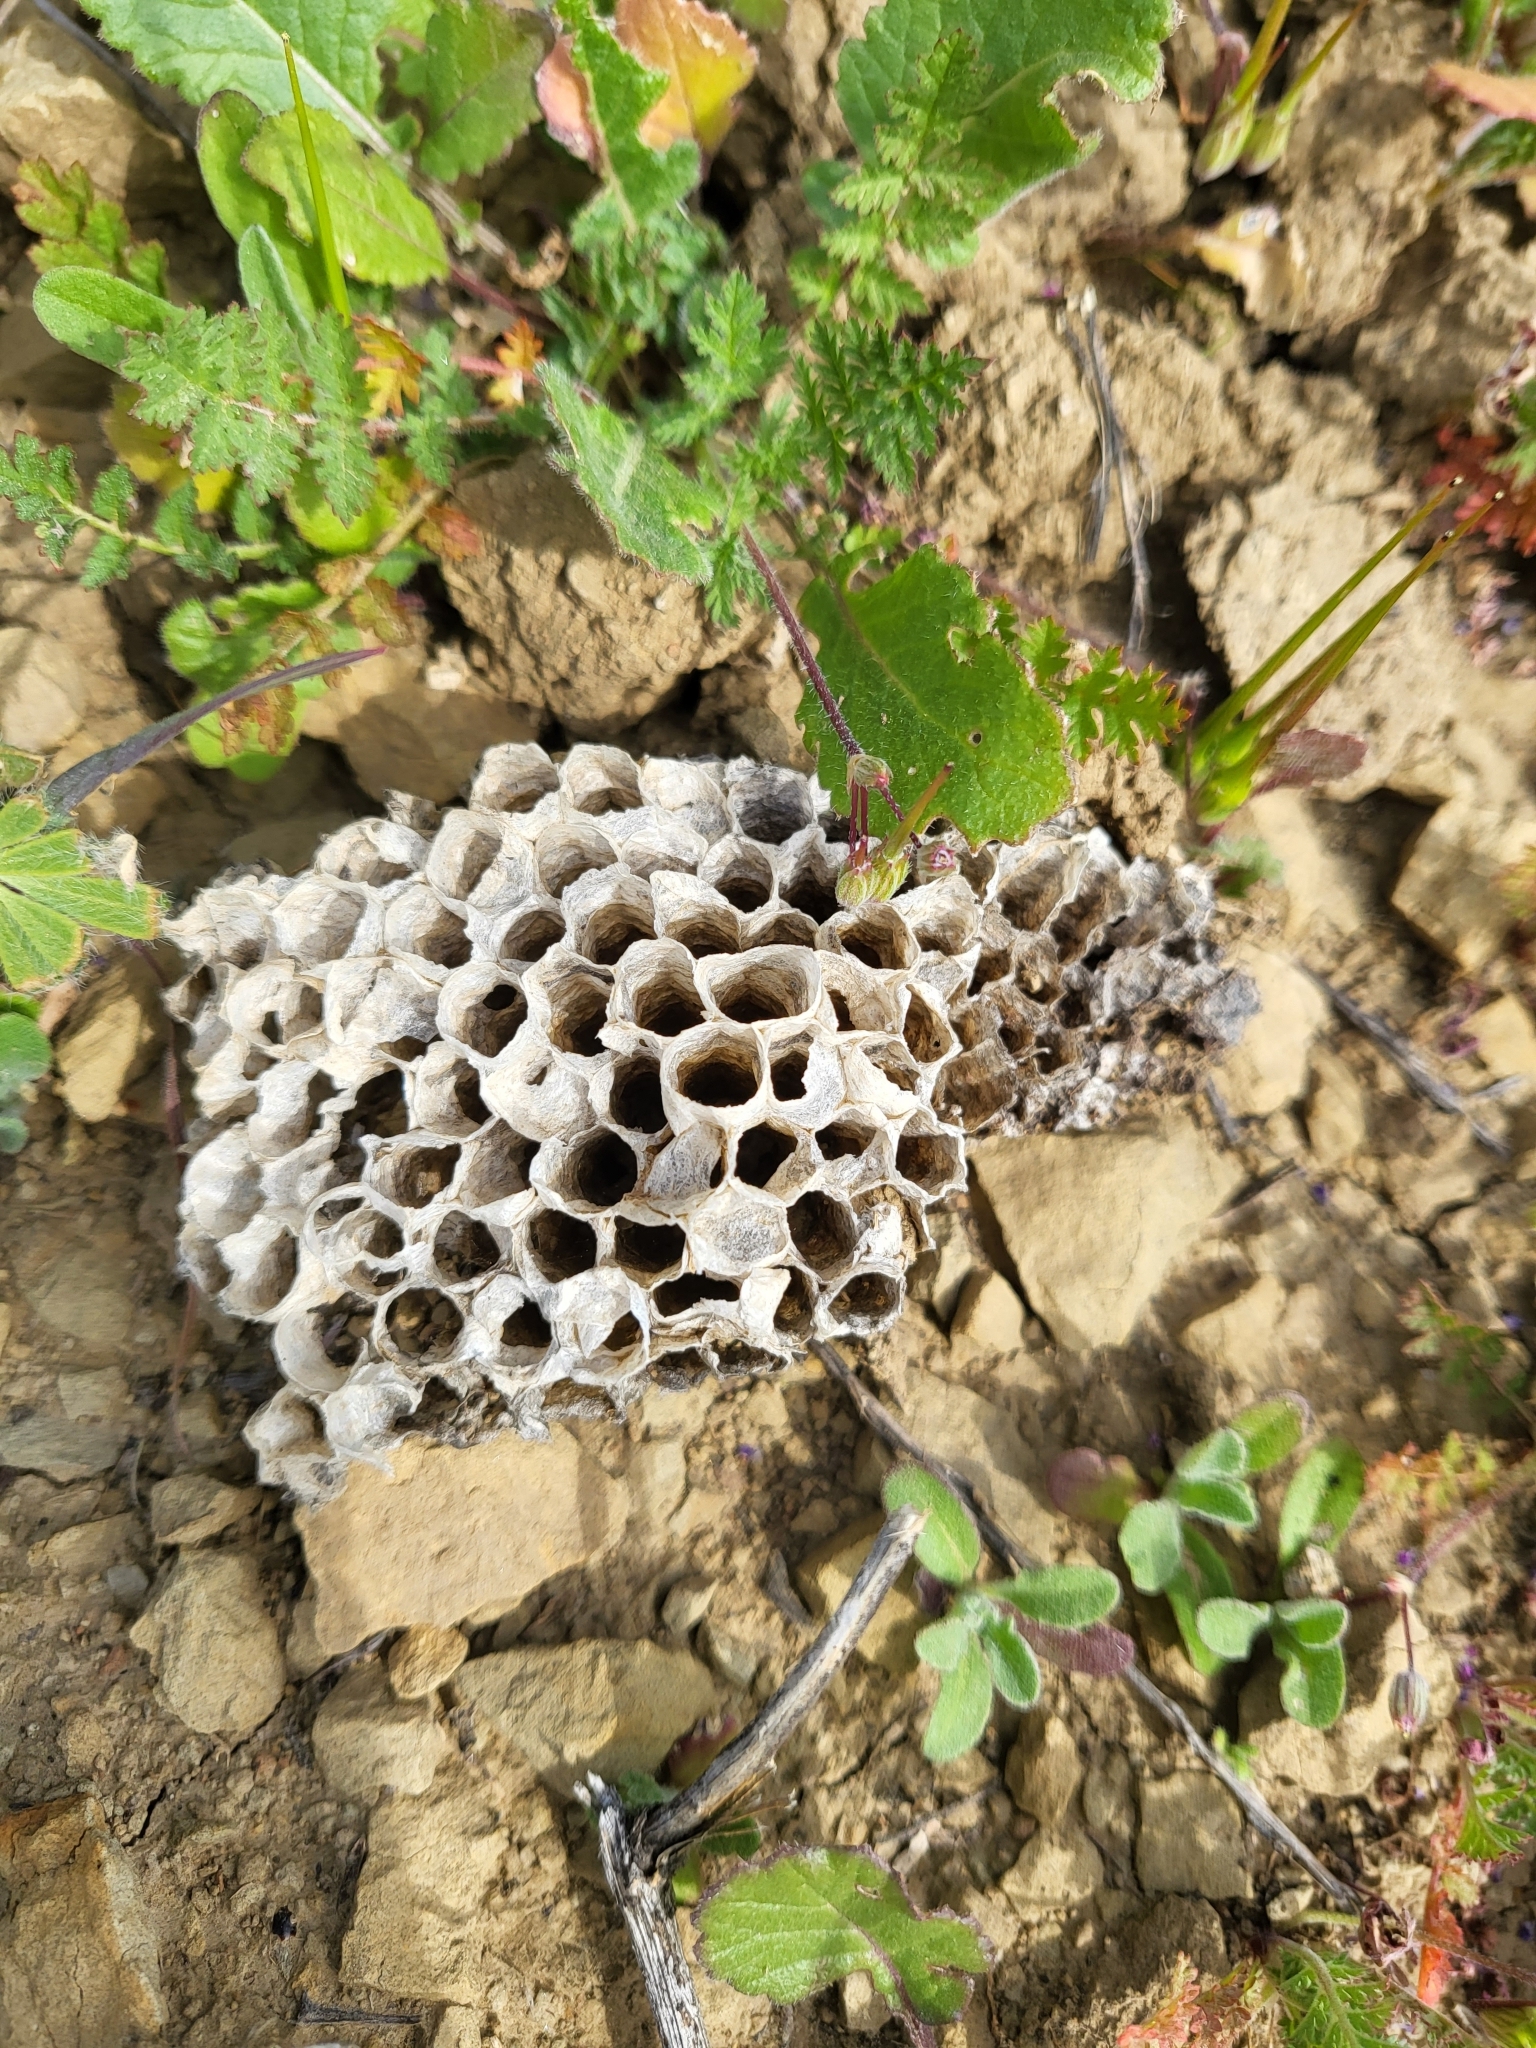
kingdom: Animalia
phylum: Arthropoda
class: Insecta
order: Hymenoptera
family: Vespidae
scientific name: Vespidae
